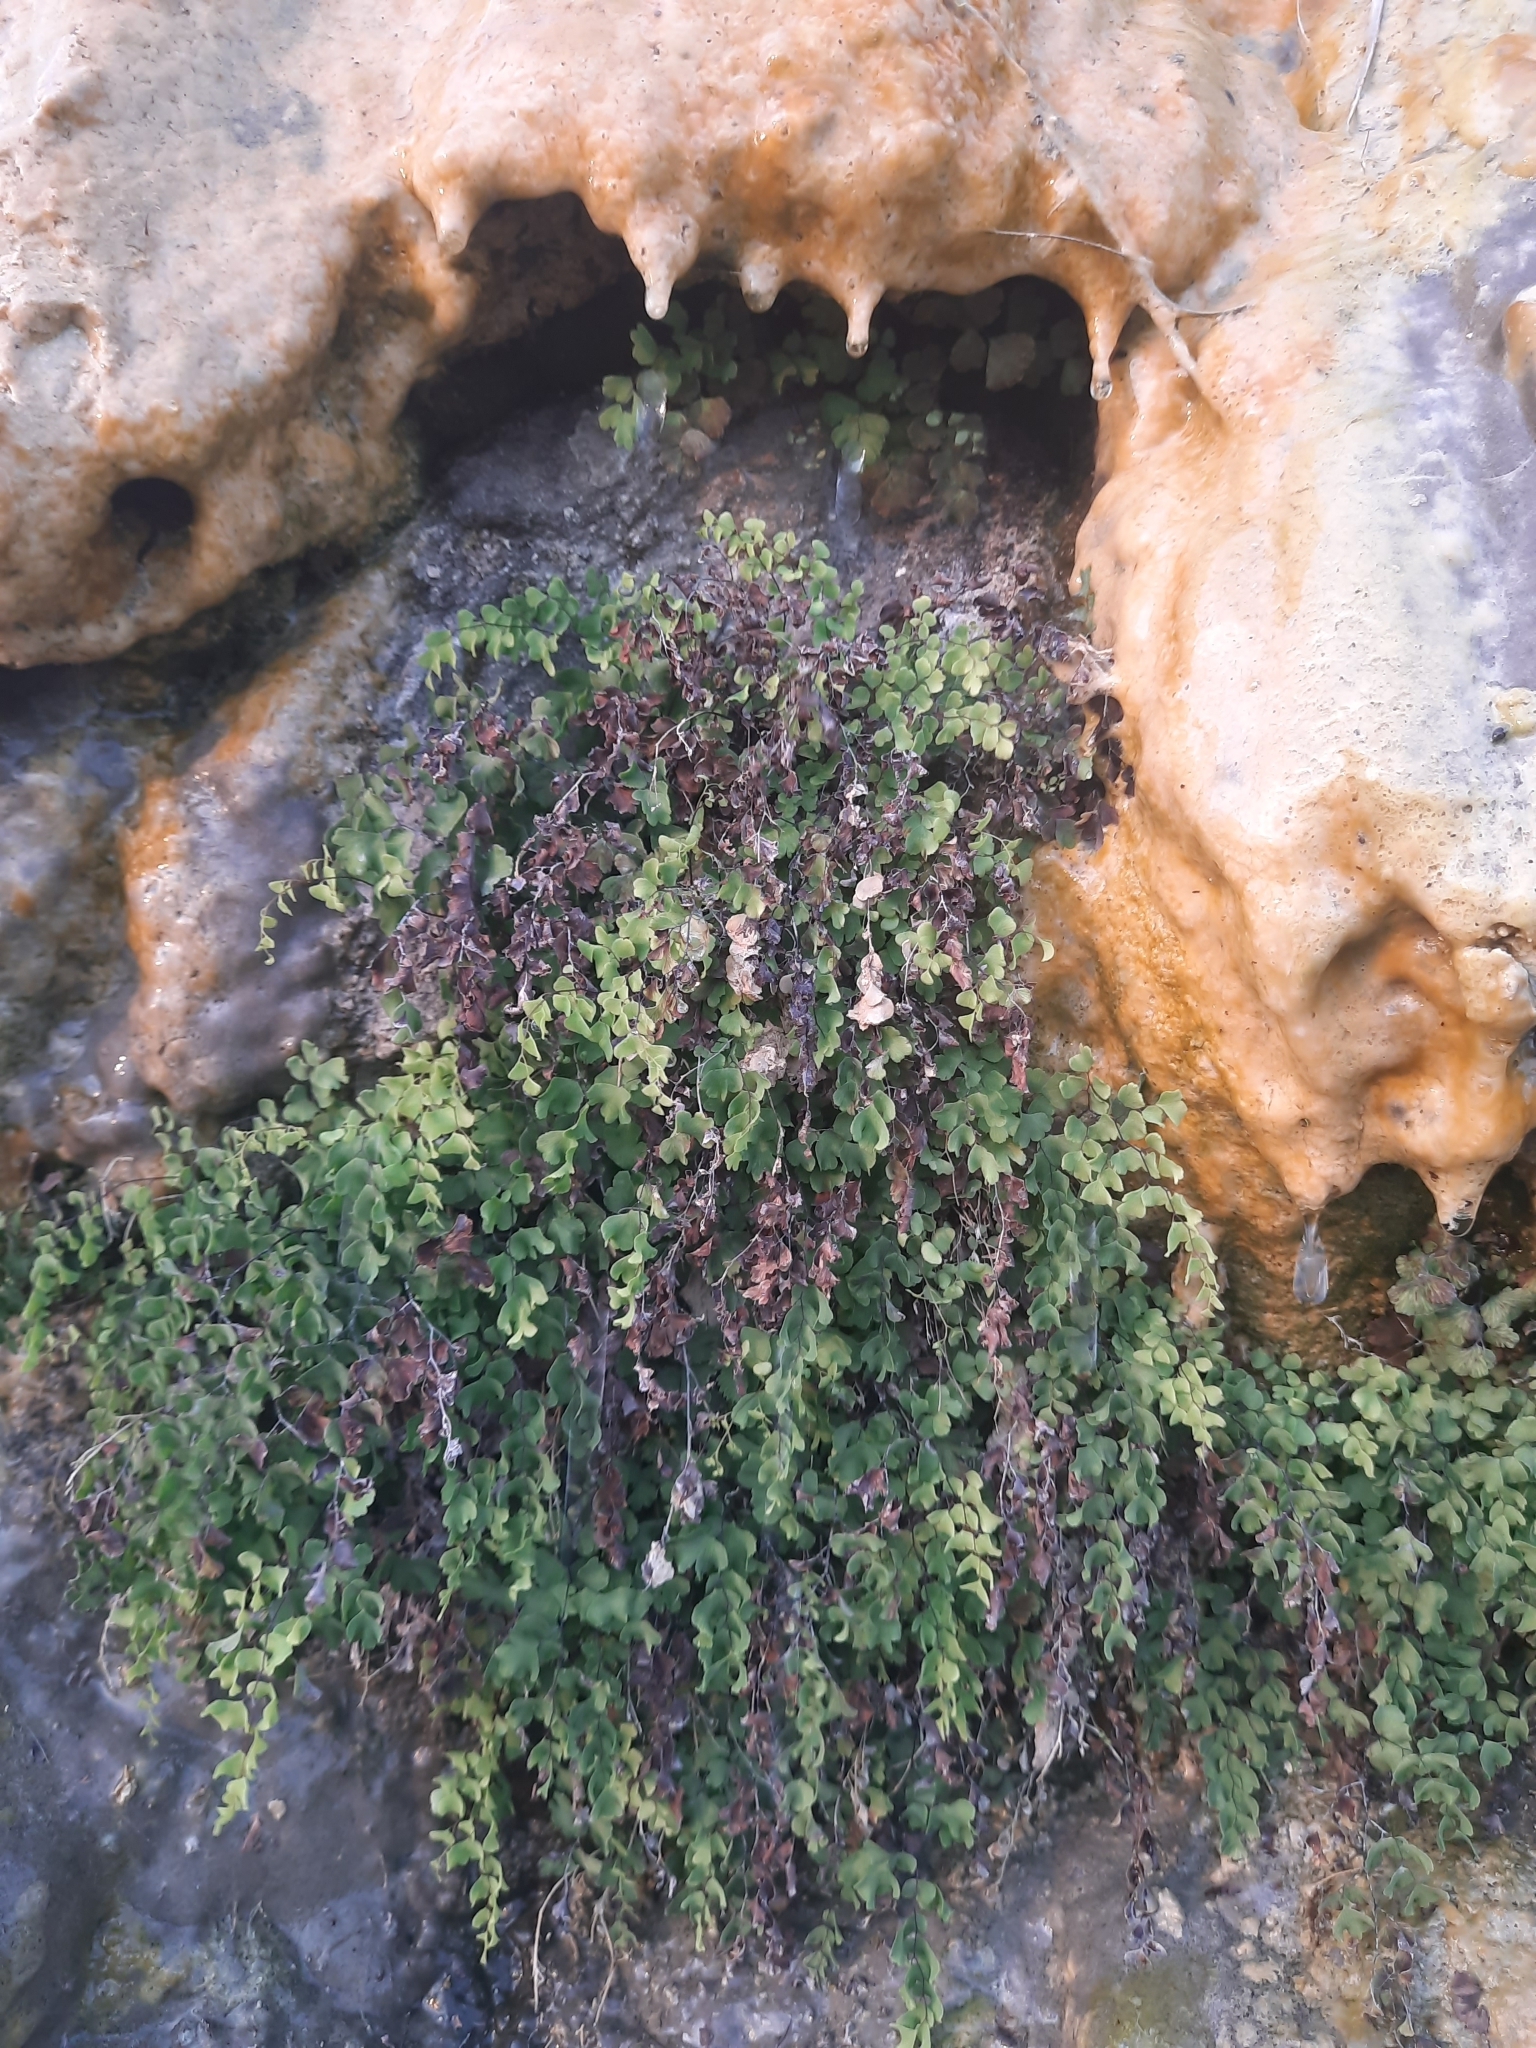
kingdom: Plantae
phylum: Tracheophyta
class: Polypodiopsida
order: Polypodiales
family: Pteridaceae
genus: Adiantum
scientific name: Adiantum capillus-veneris
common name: Maidenhair fern
